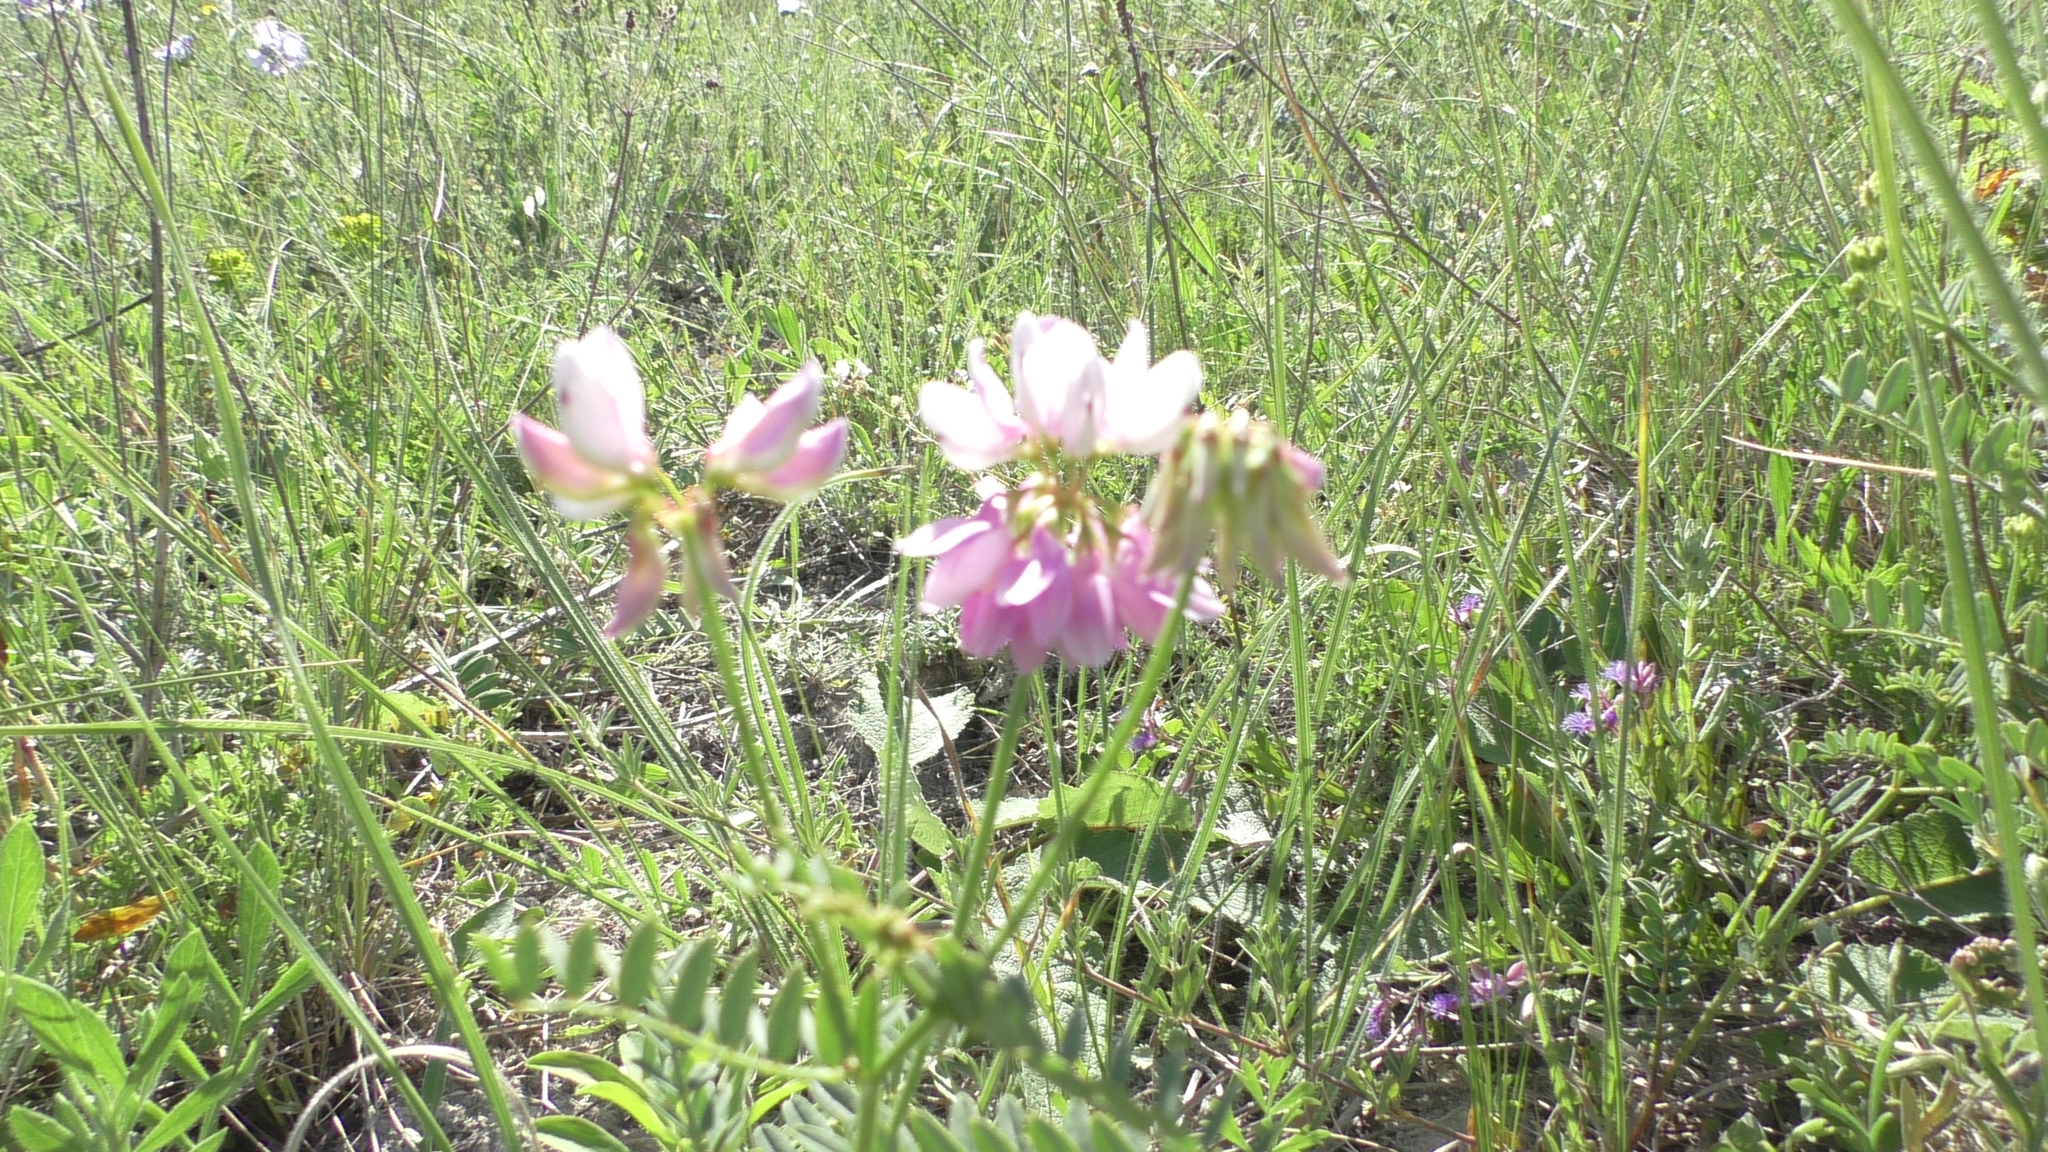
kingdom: Plantae
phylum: Tracheophyta
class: Magnoliopsida
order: Fabales
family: Fabaceae
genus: Coronilla
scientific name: Coronilla varia
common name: Crownvetch
